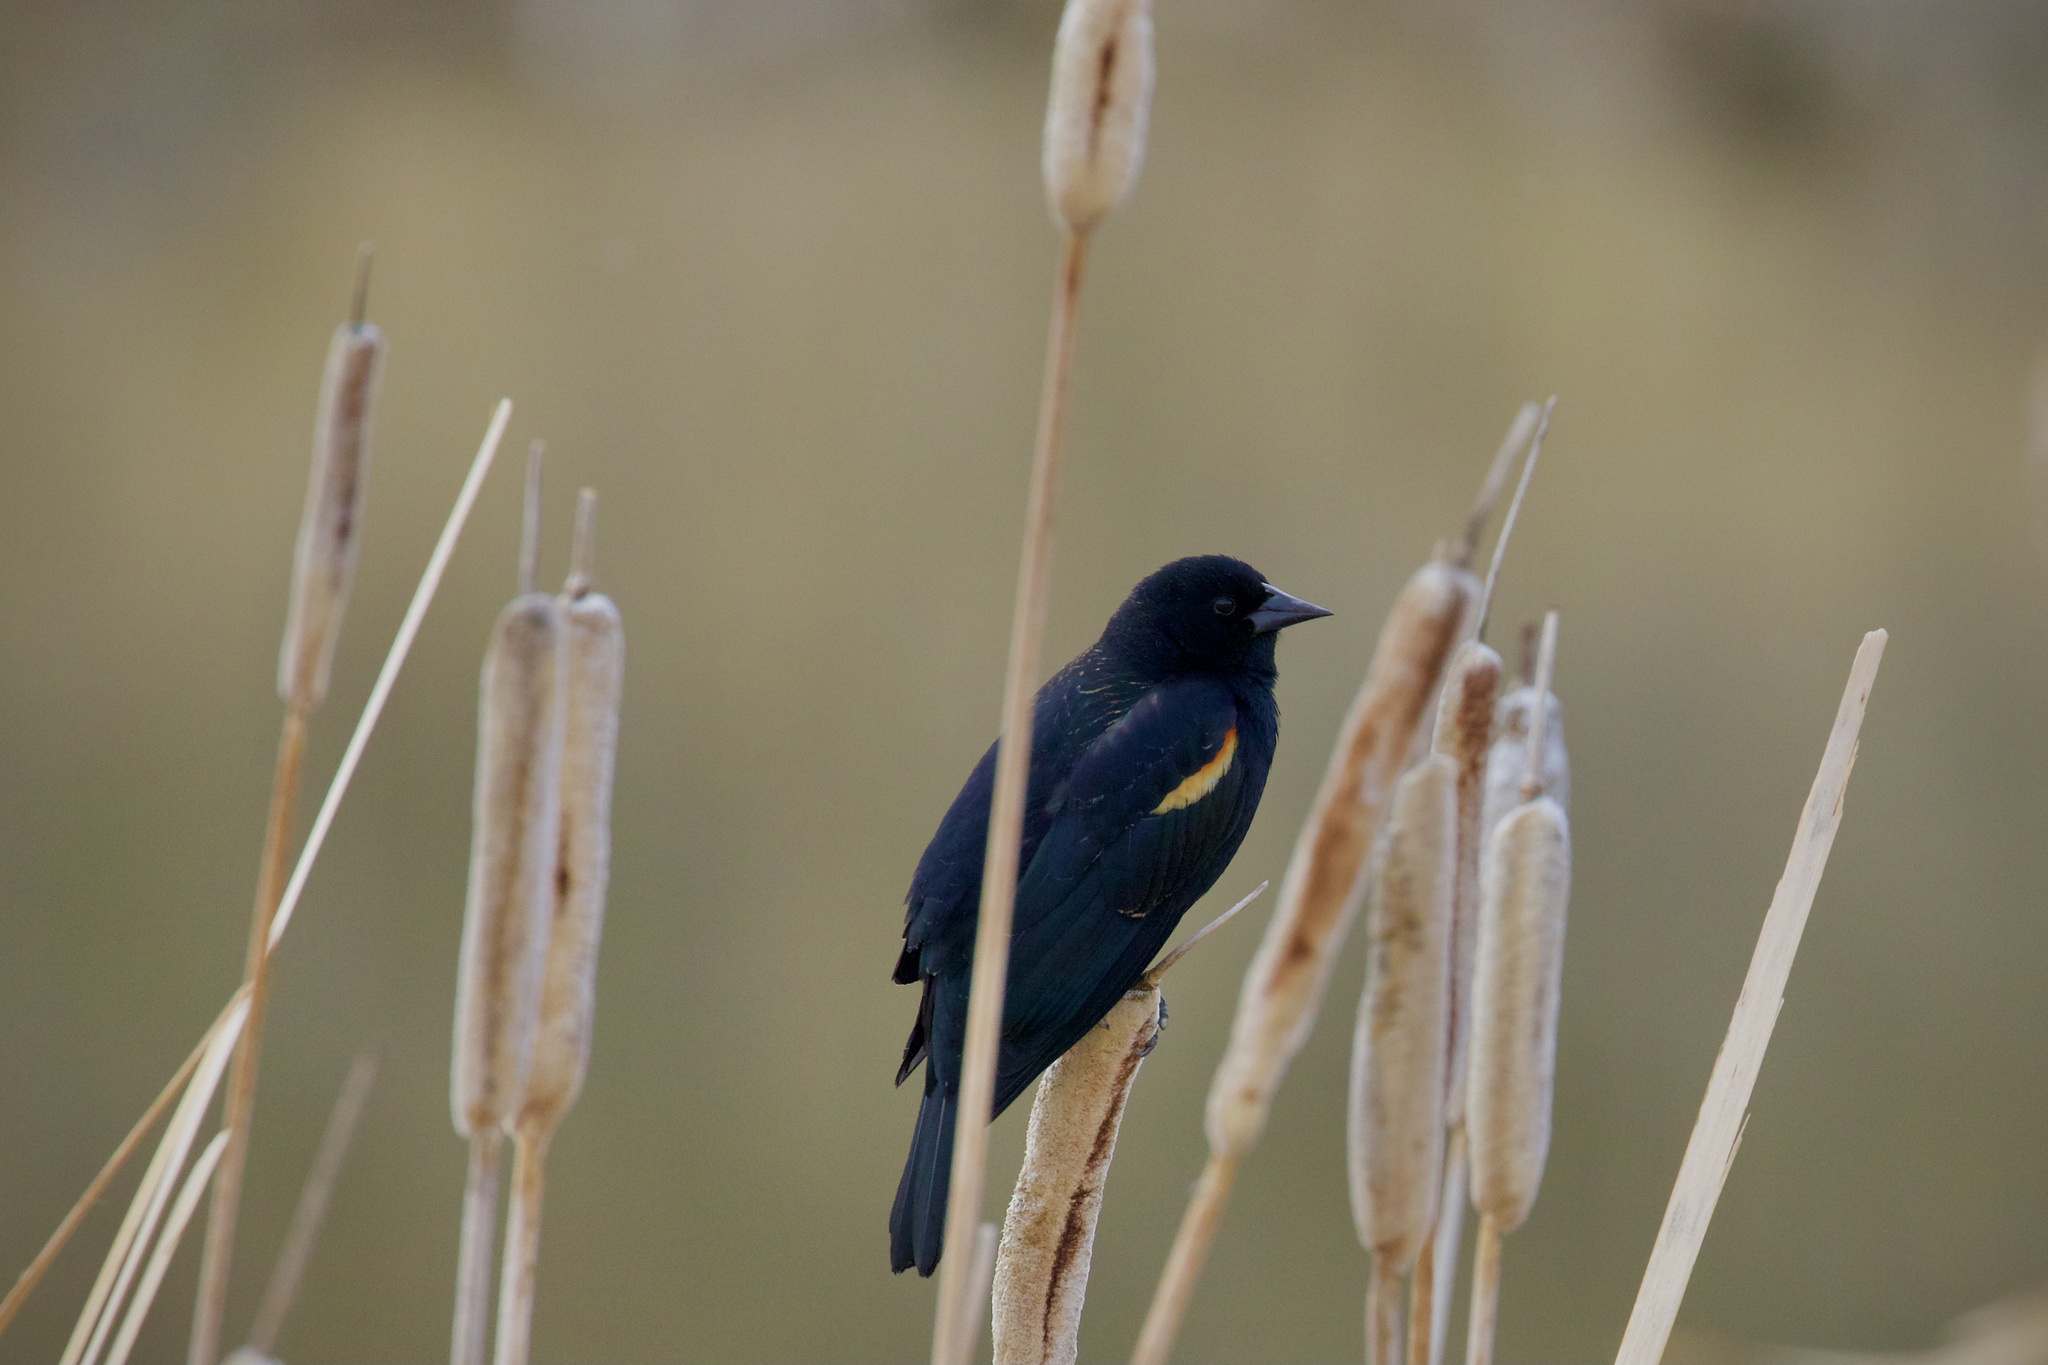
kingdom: Animalia
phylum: Chordata
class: Aves
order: Passeriformes
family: Icteridae
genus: Agelaius
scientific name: Agelaius phoeniceus
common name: Red-winged blackbird
